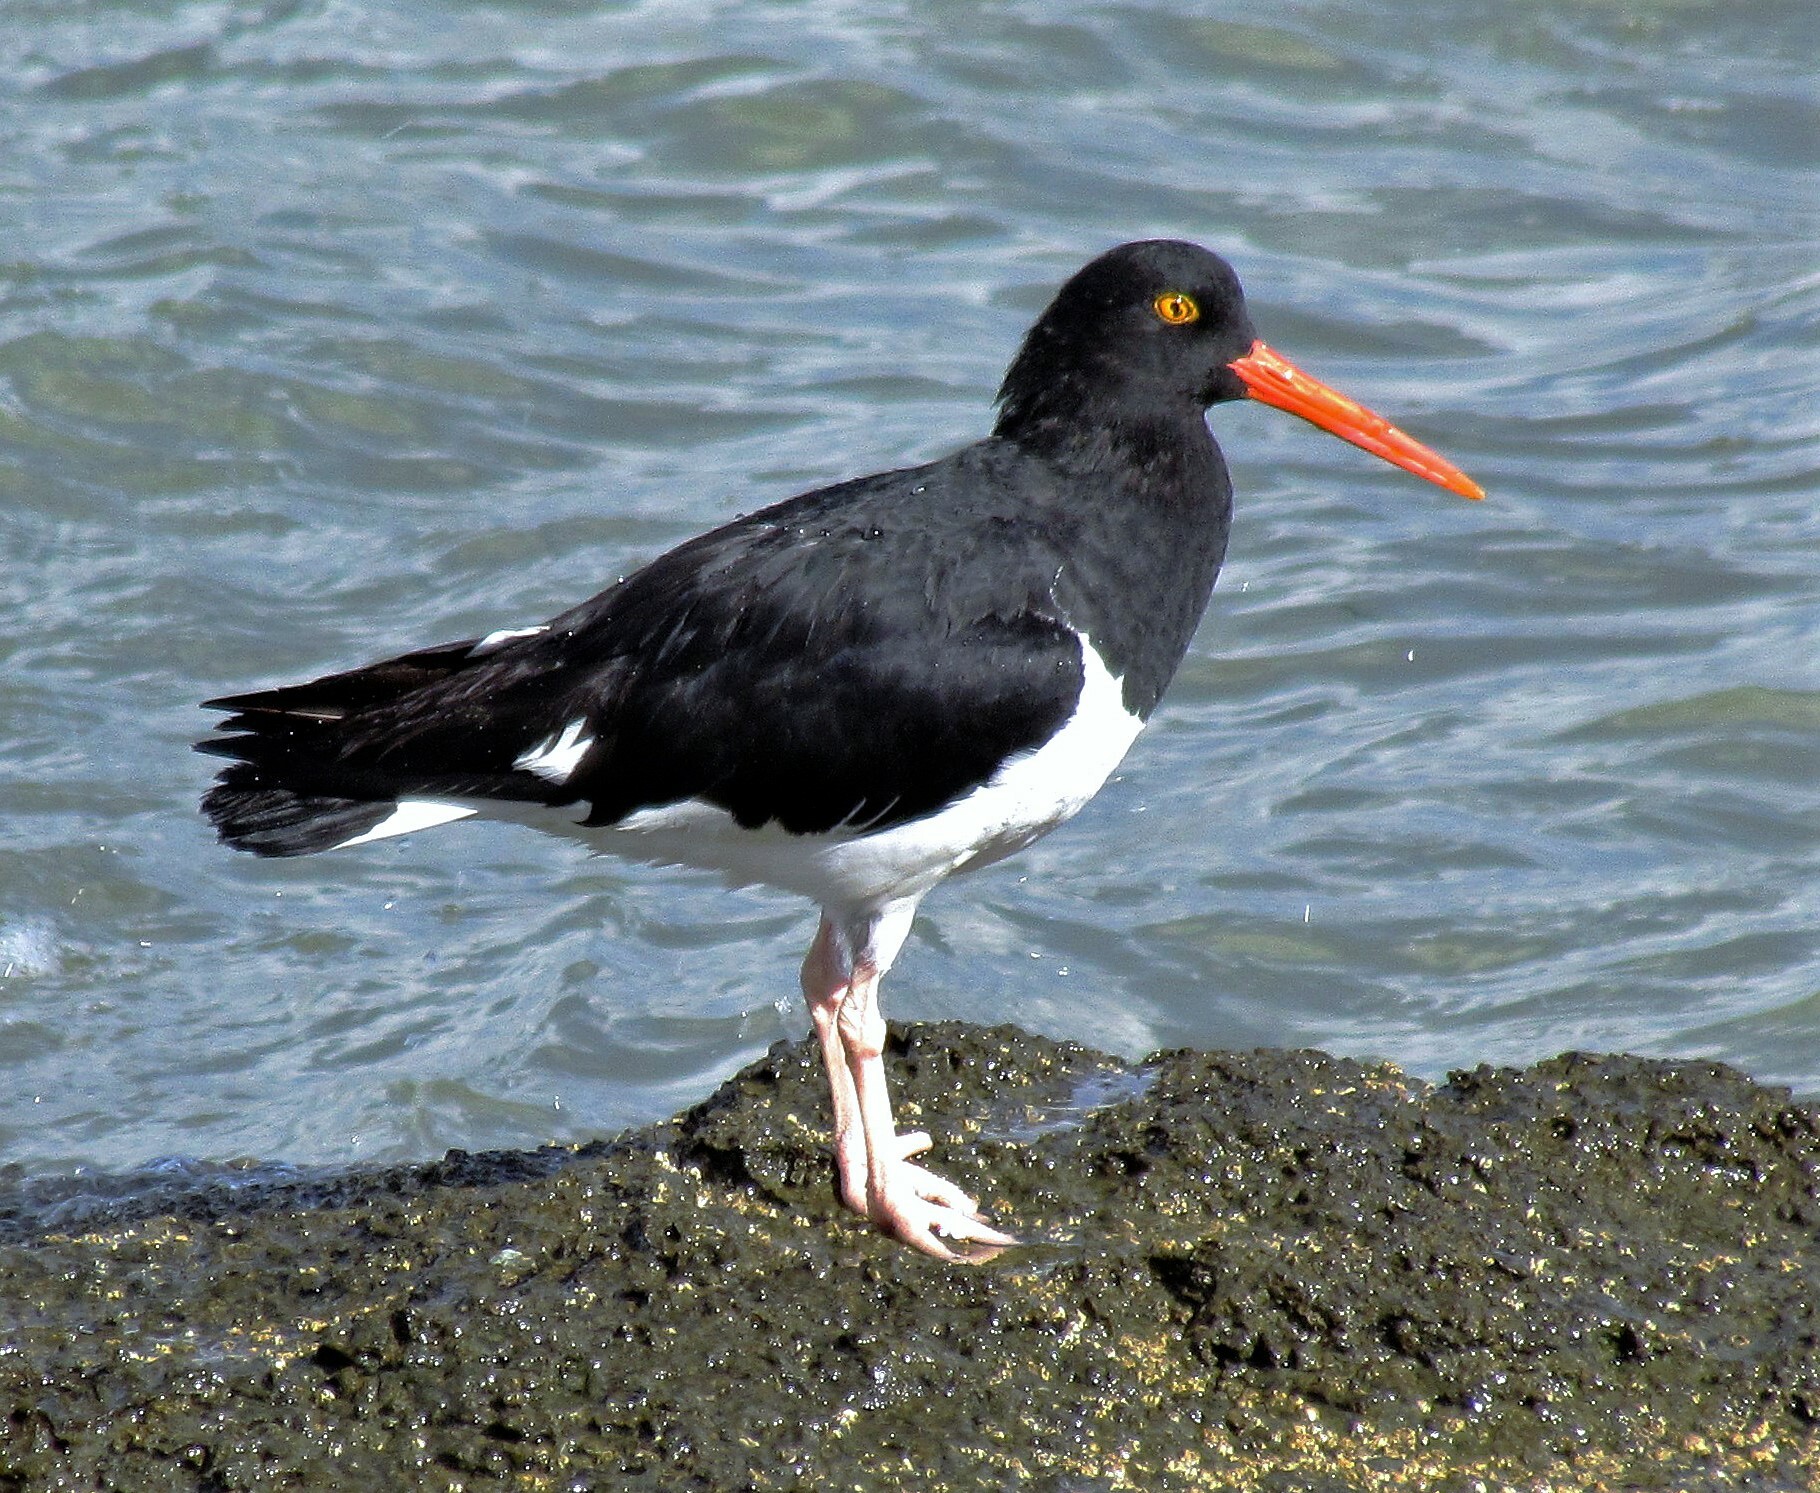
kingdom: Animalia
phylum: Chordata
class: Aves
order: Charadriiformes
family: Haematopodidae
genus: Haematopus
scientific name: Haematopus leucopodus
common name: Magellanic oystercatcher
